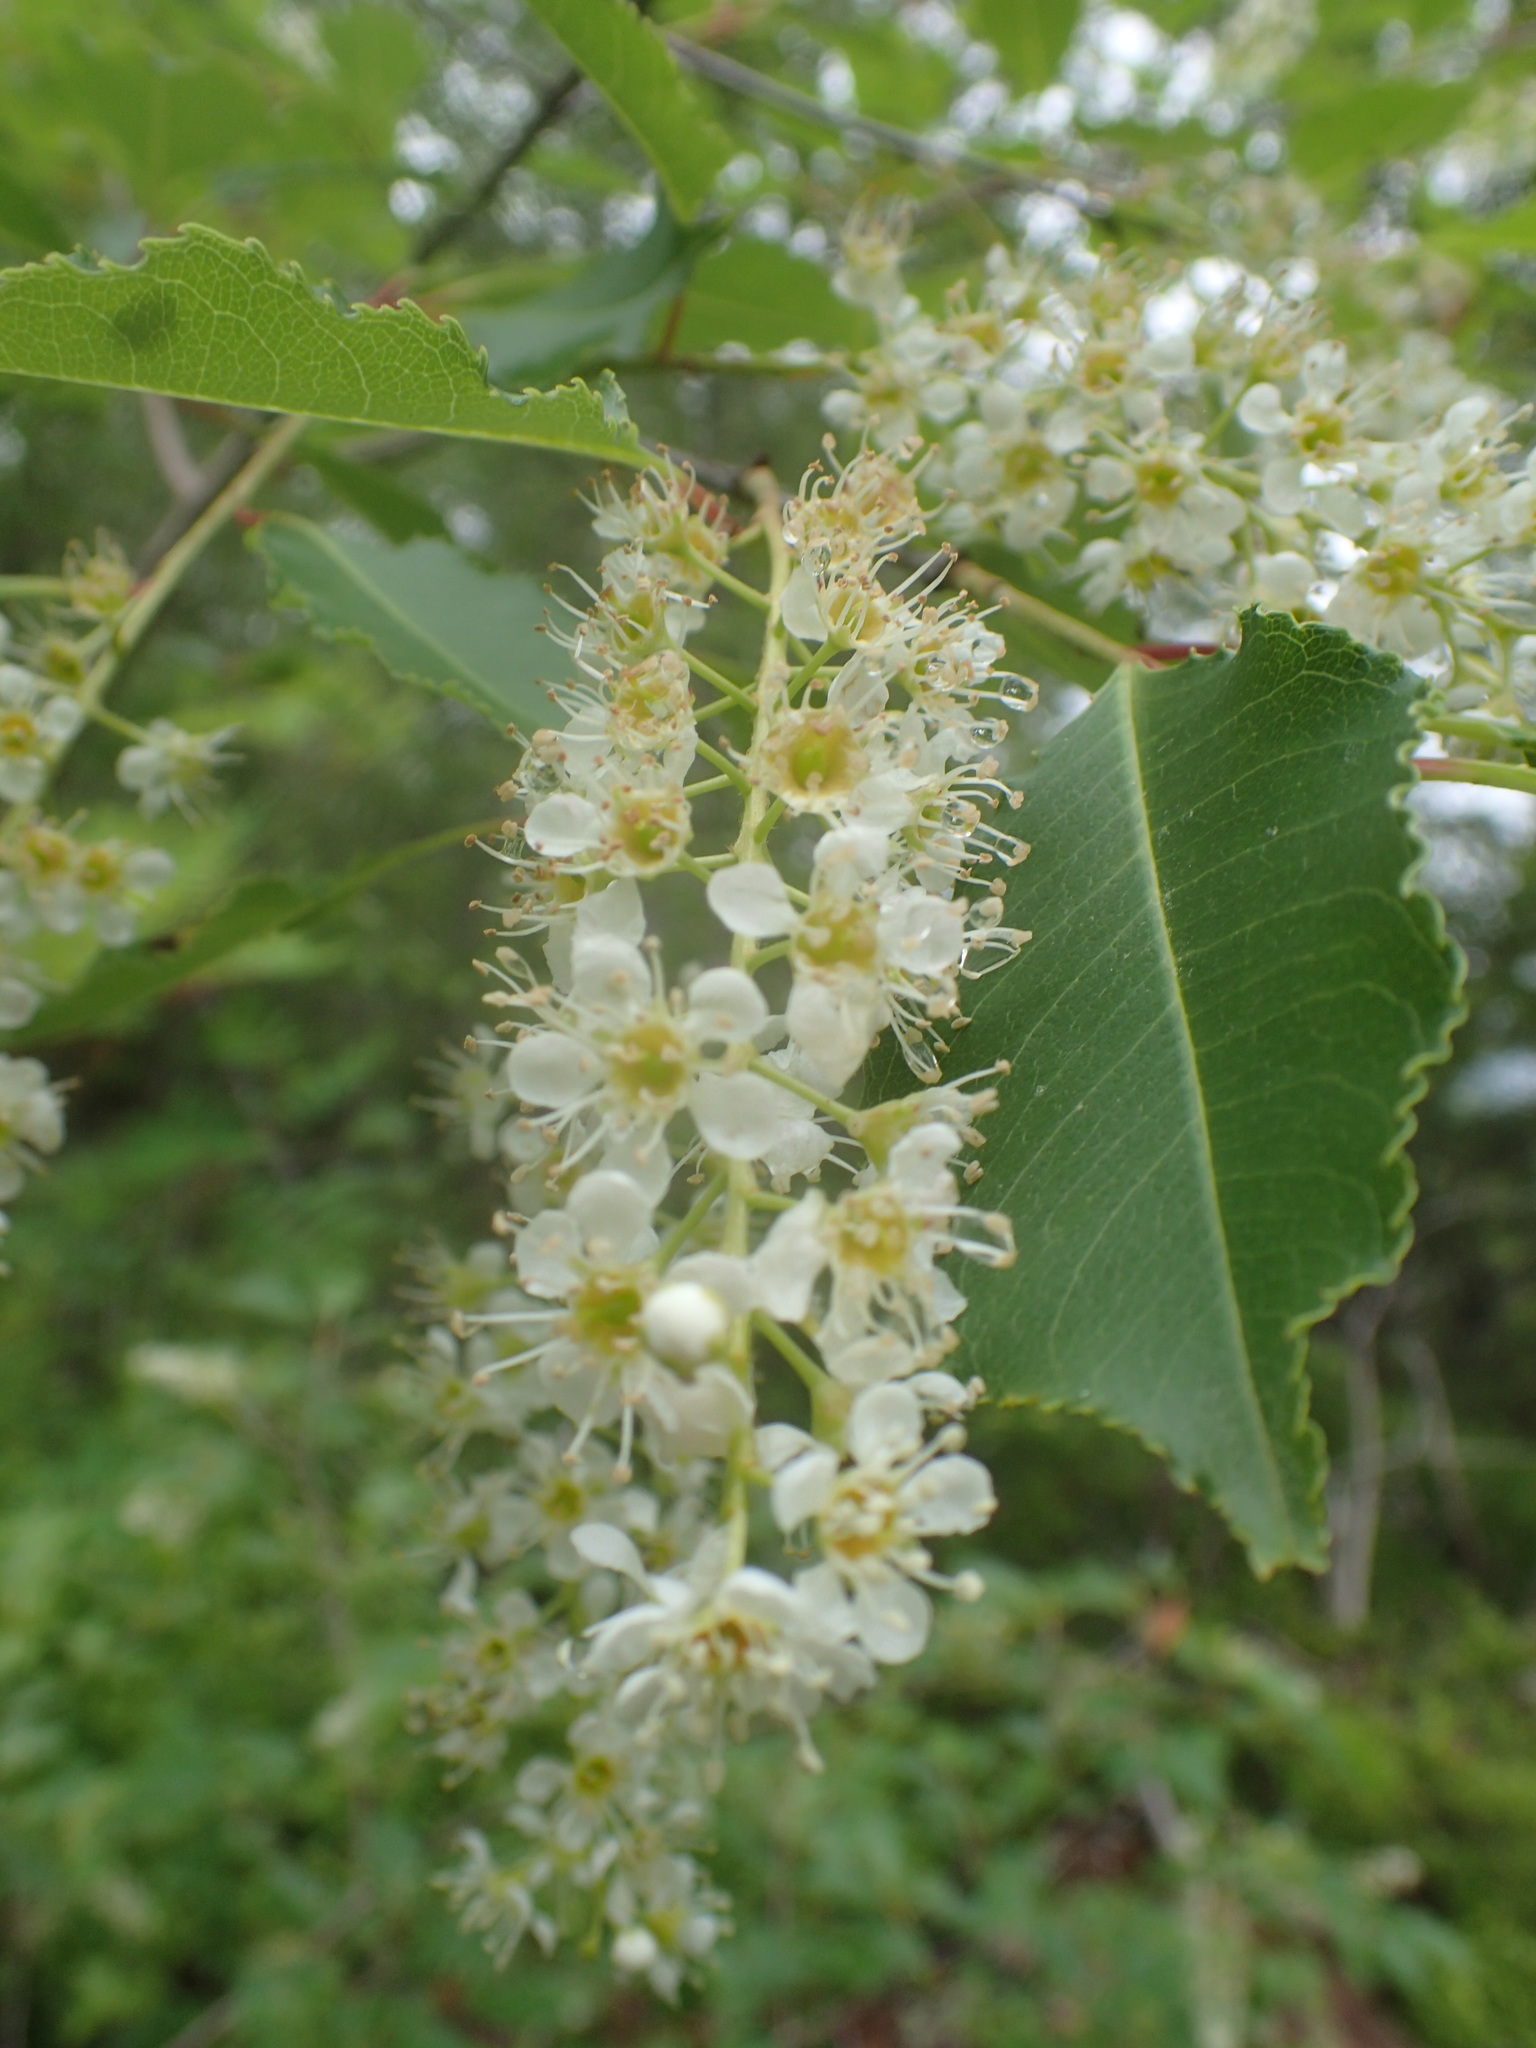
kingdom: Plantae
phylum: Tracheophyta
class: Magnoliopsida
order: Rosales
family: Rosaceae
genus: Prunus
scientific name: Prunus virginiana
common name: Chokecherry
